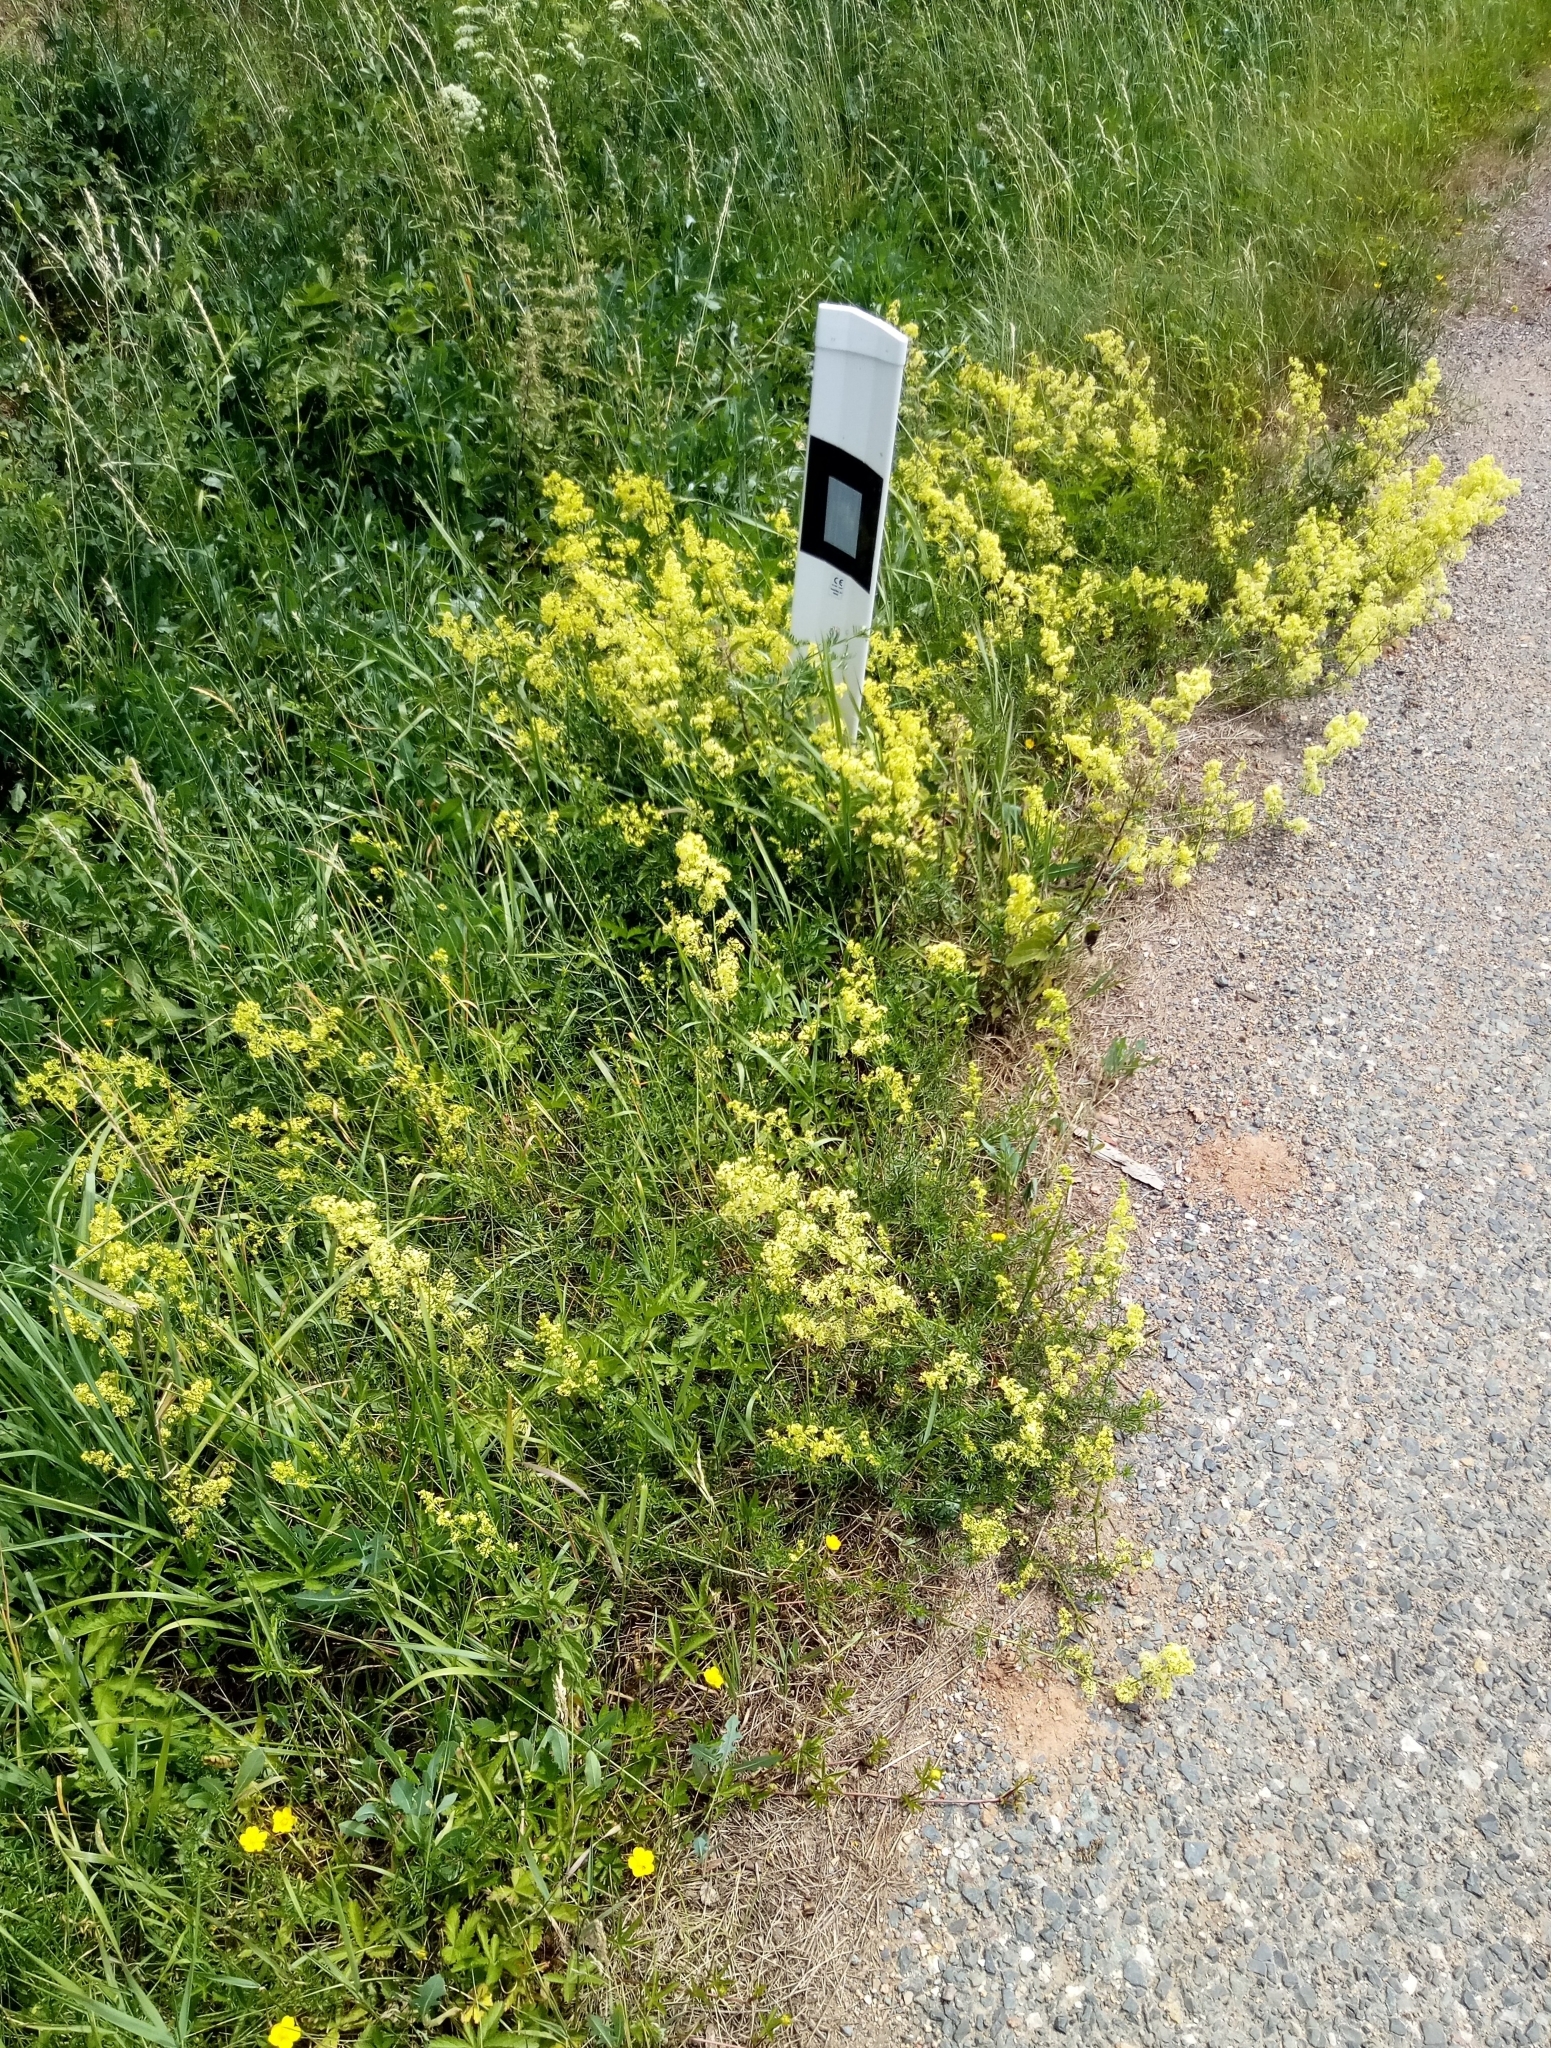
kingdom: Plantae
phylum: Tracheophyta
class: Magnoliopsida
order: Gentianales
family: Rubiaceae
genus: Galium
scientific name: Galium pomeranicum
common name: Bedstraw
